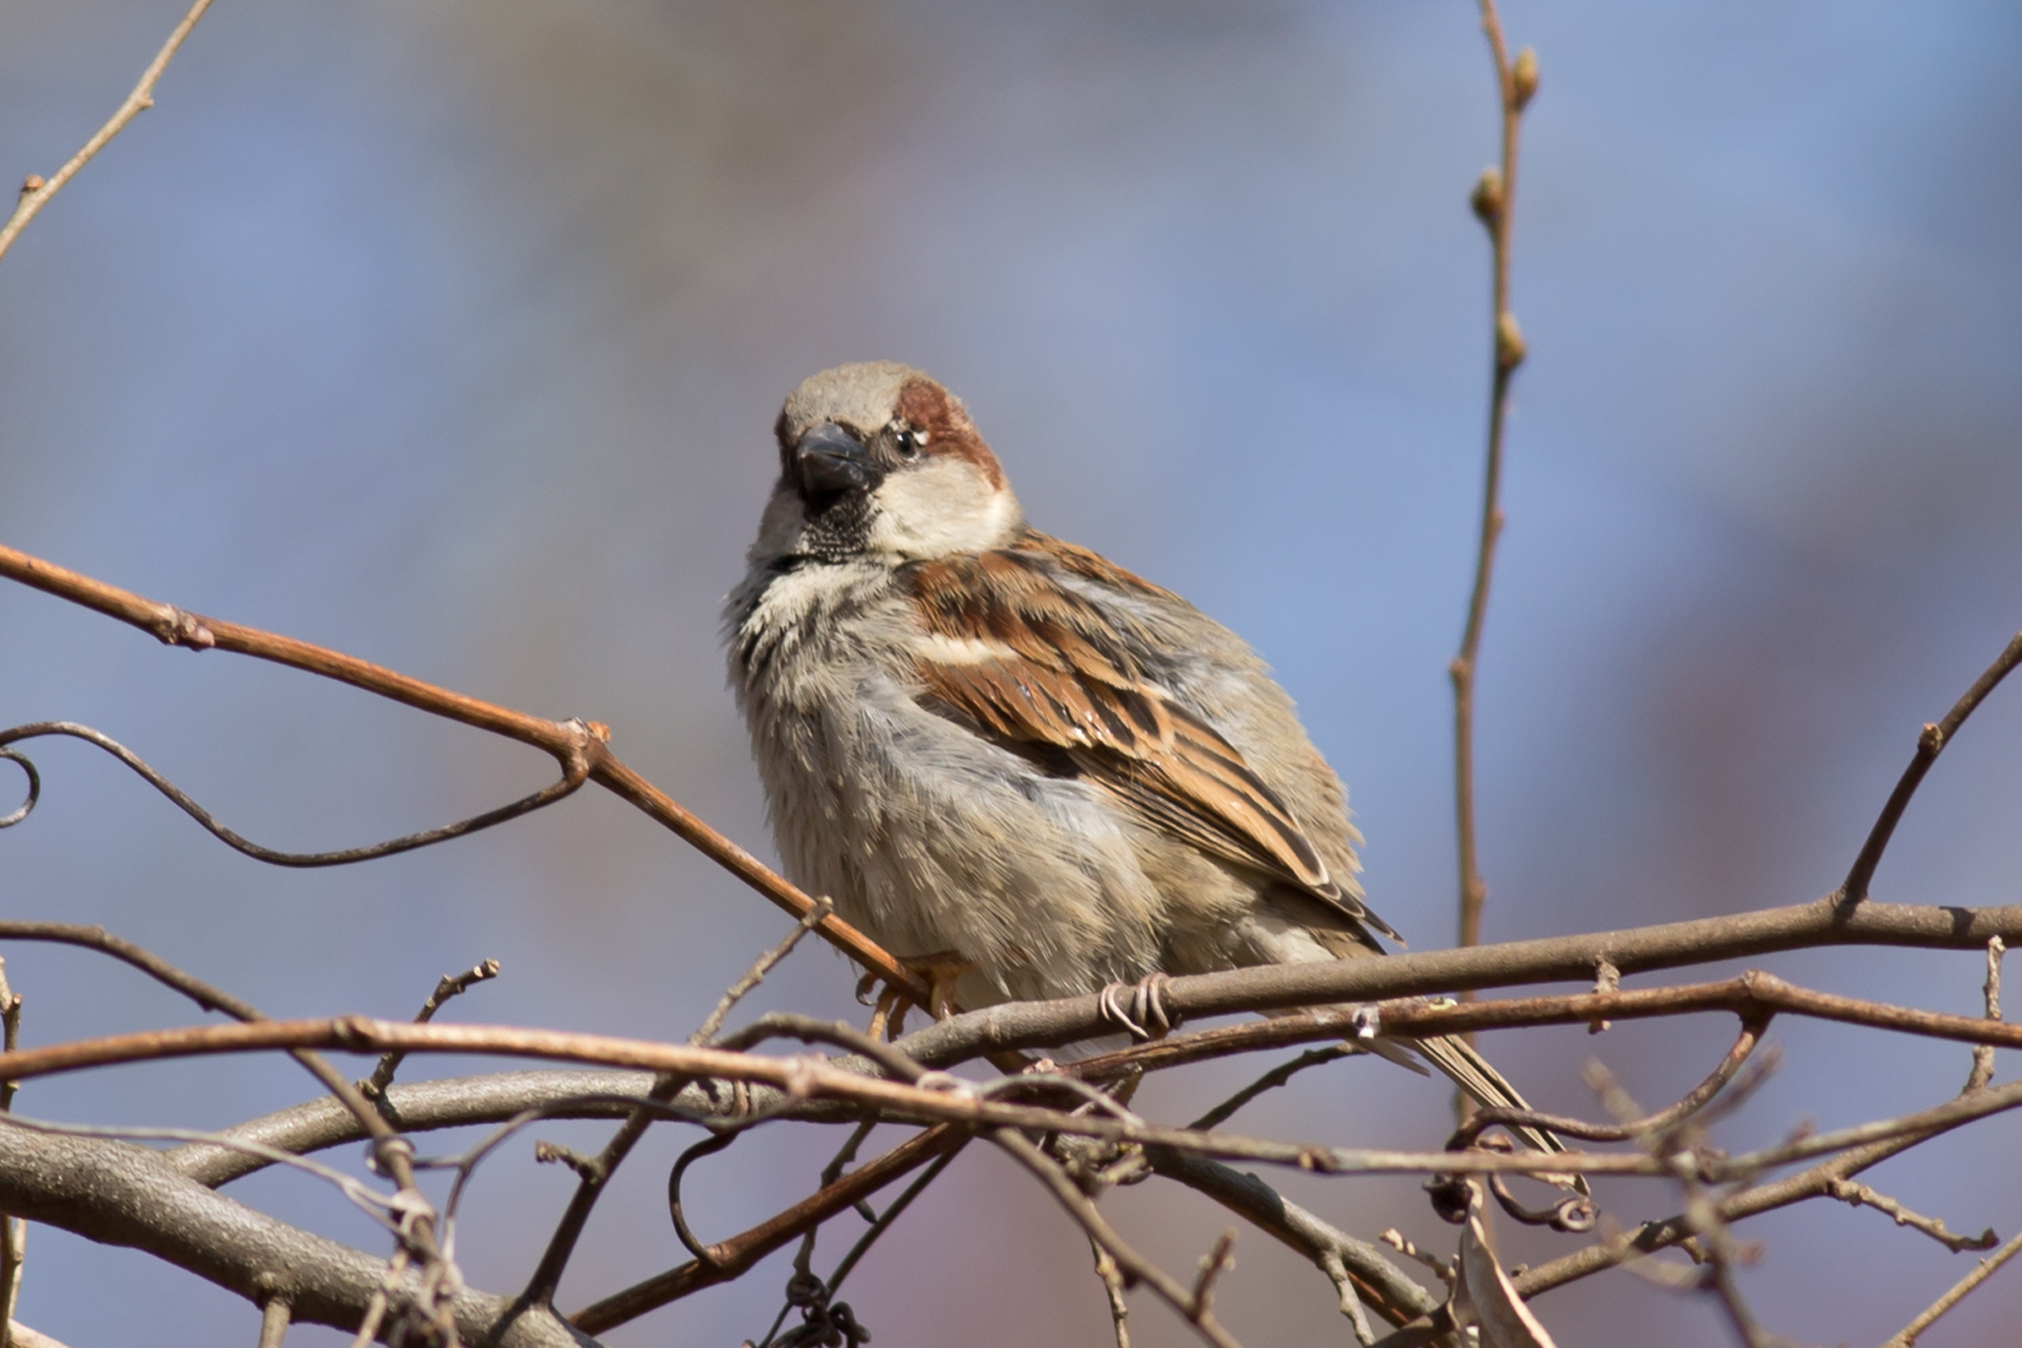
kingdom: Animalia
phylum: Chordata
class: Aves
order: Passeriformes
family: Passeridae
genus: Passer
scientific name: Passer domesticus
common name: House sparrow
